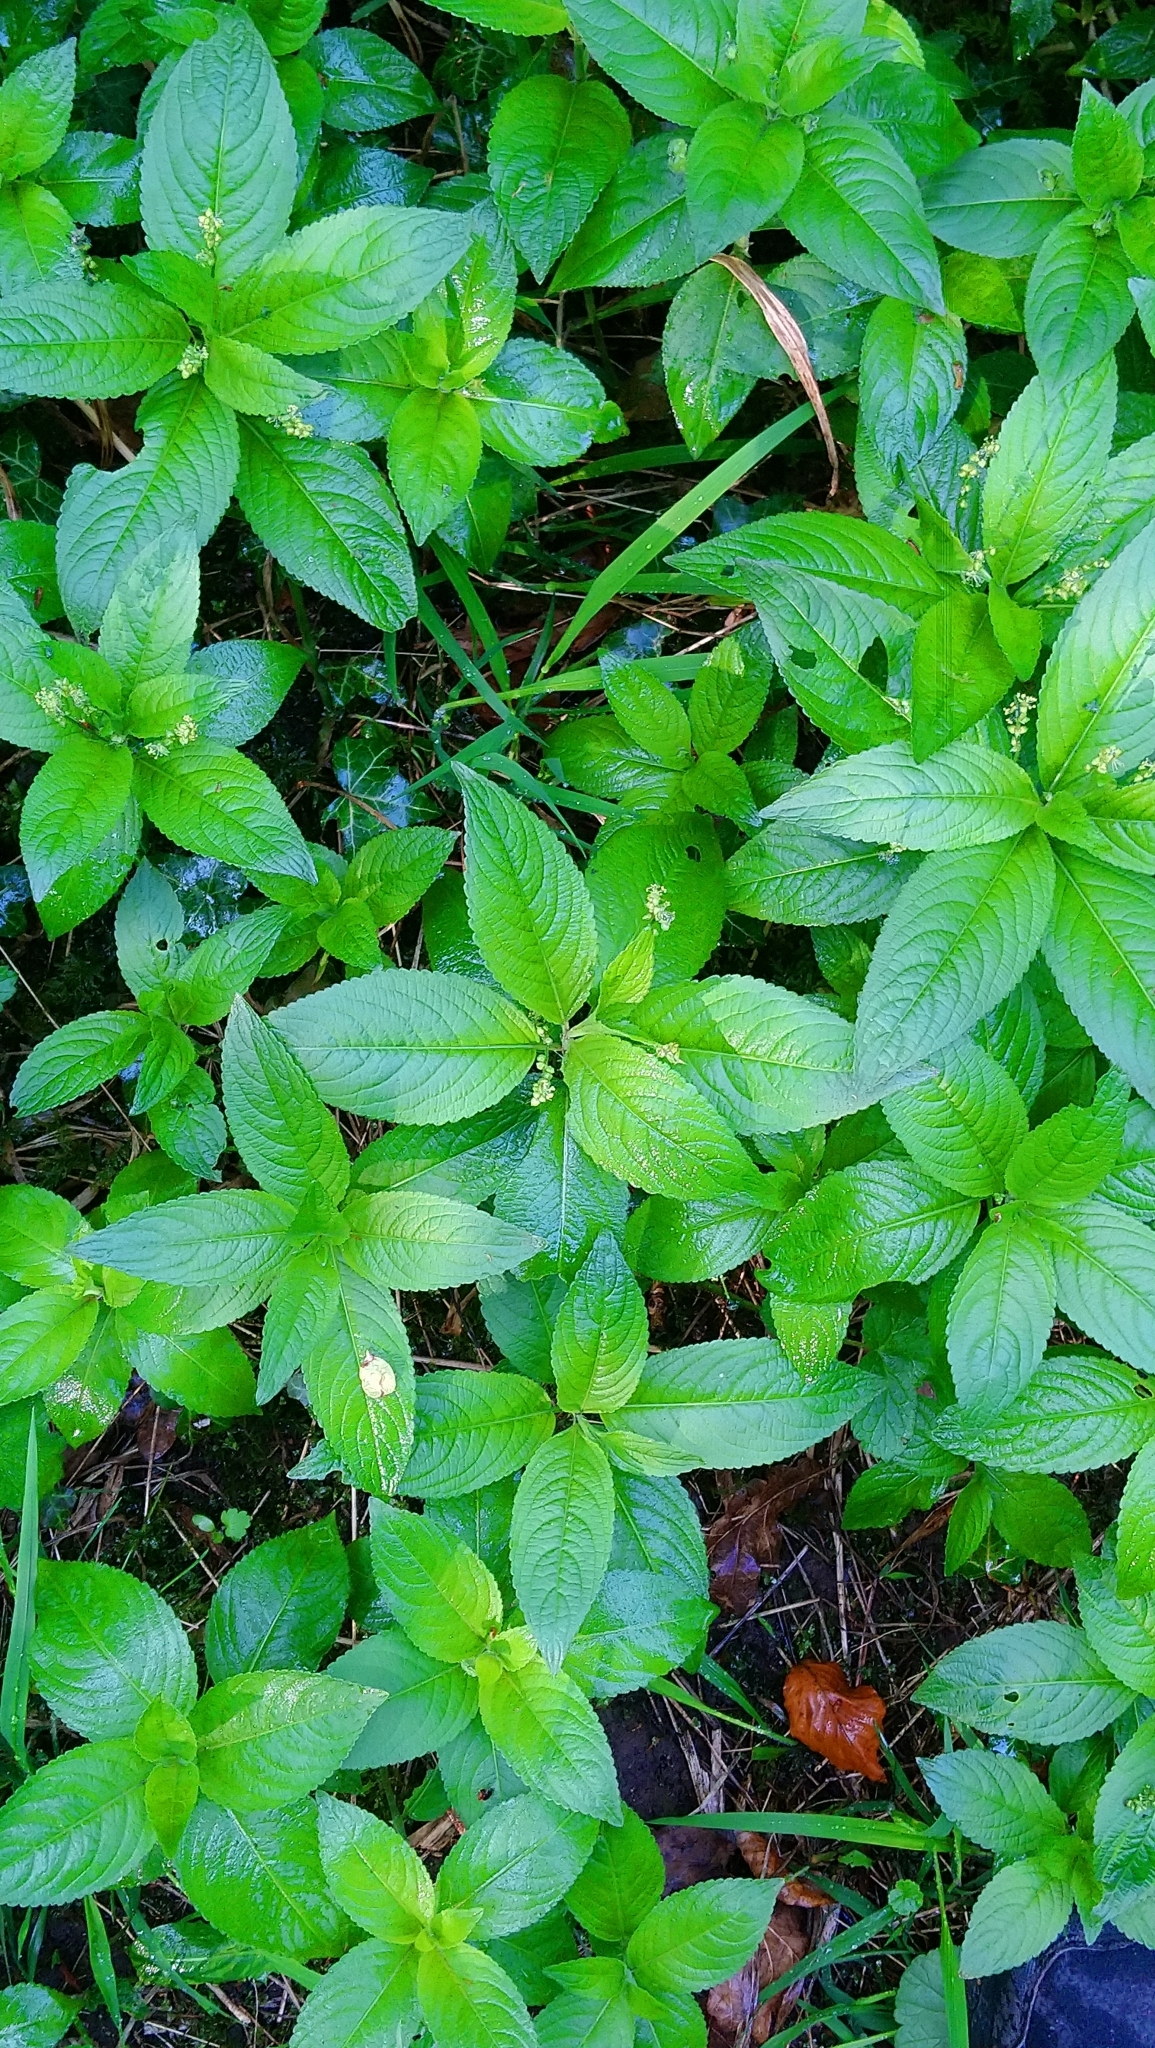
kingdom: Plantae
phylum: Tracheophyta
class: Magnoliopsida
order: Malpighiales
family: Euphorbiaceae
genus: Mercurialis
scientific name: Mercurialis perennis
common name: Dog mercury
